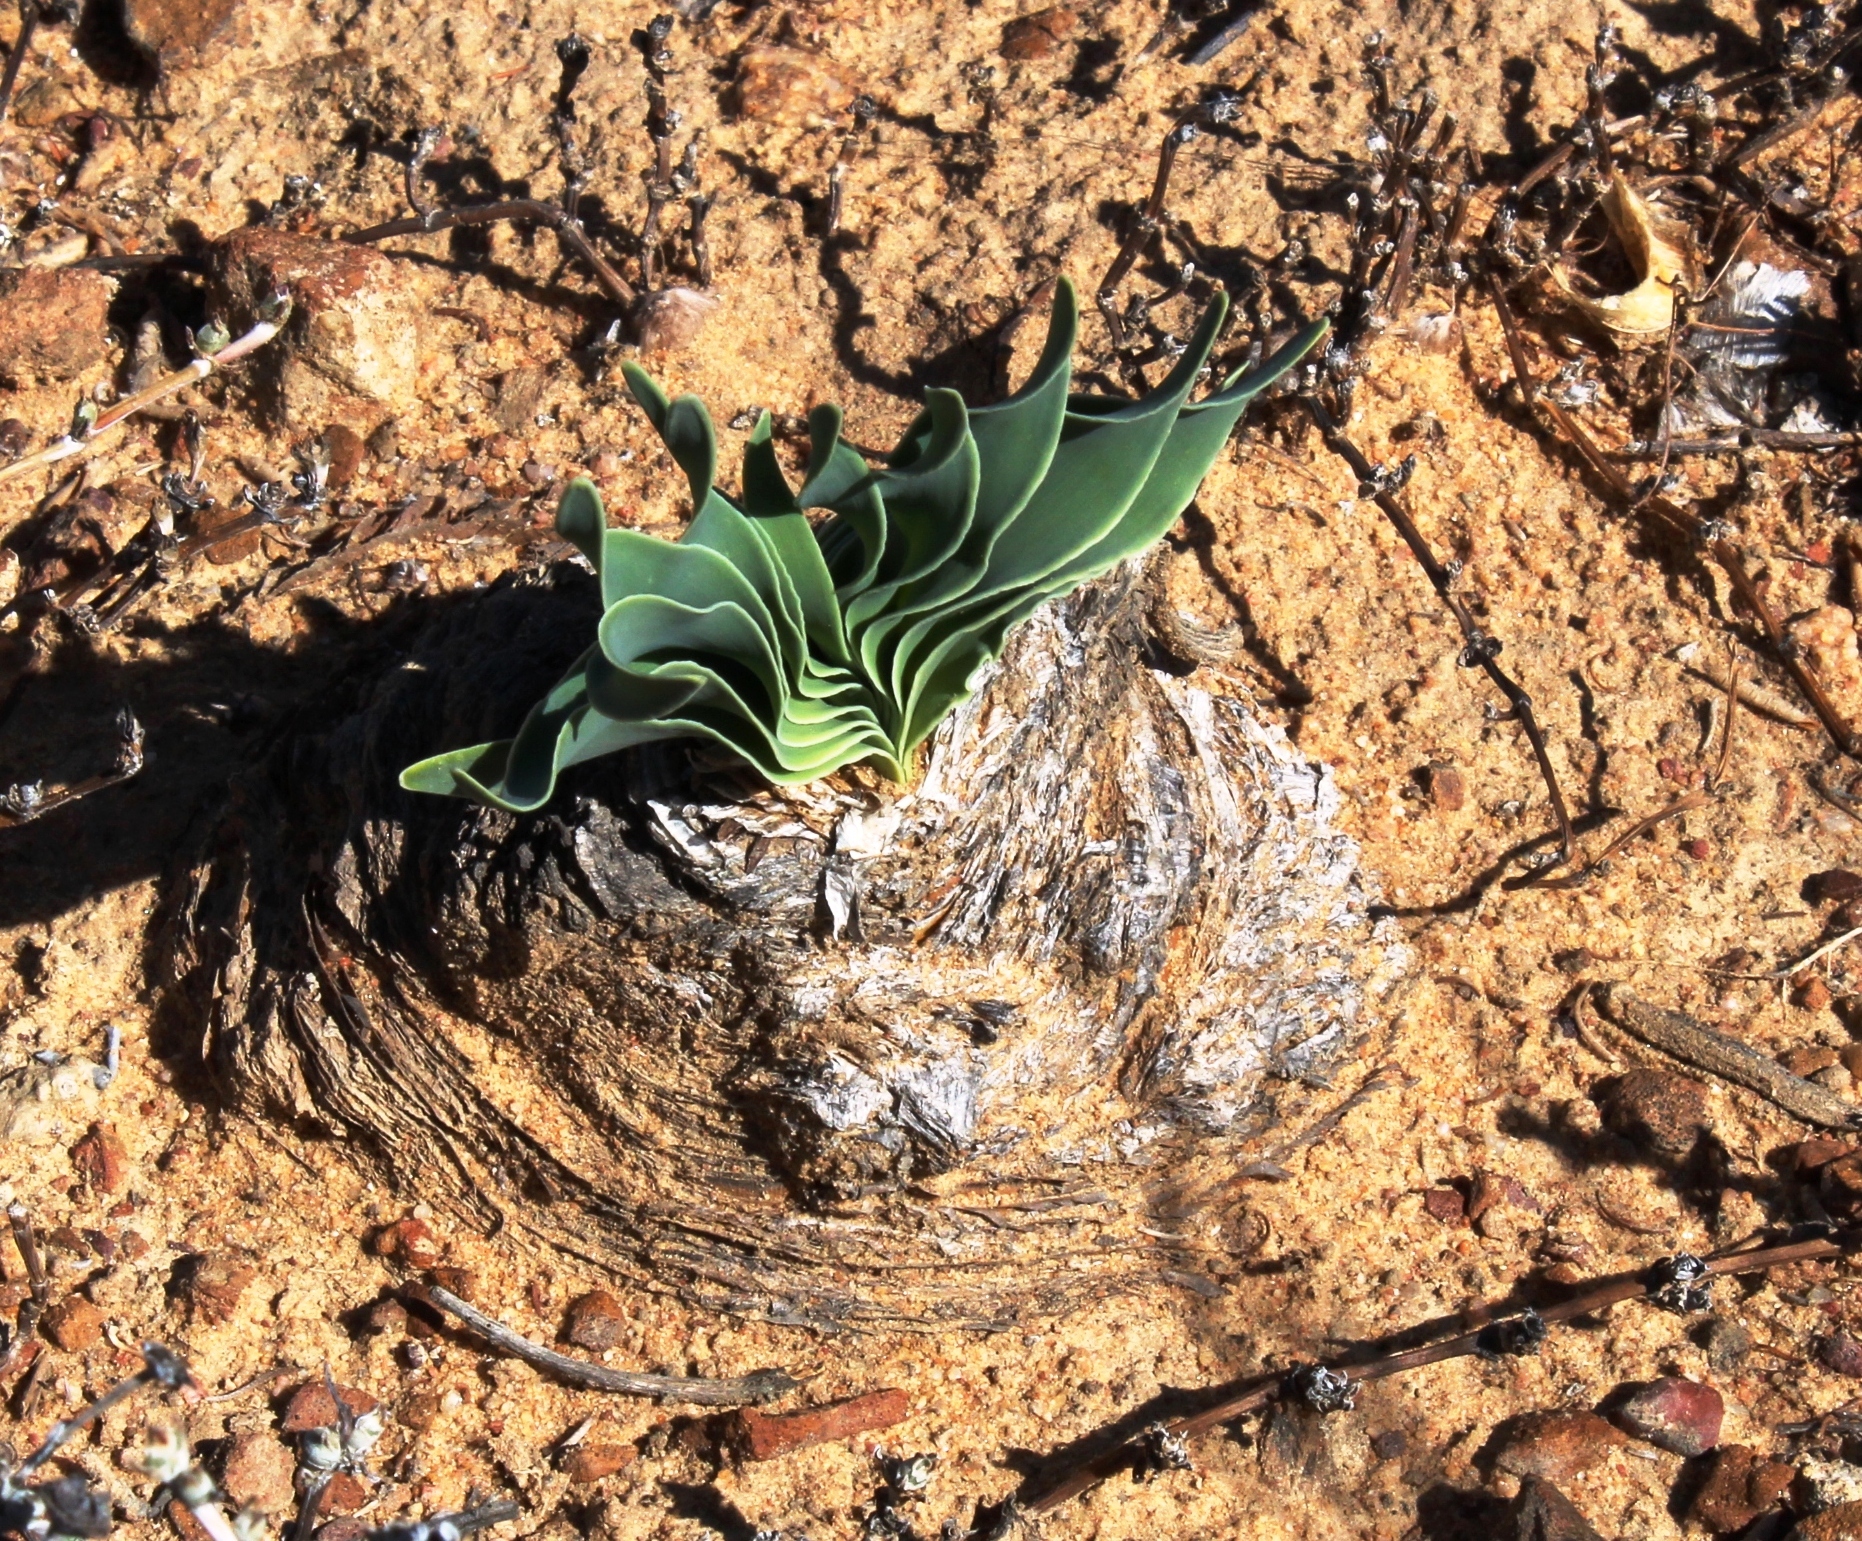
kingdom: Plantae
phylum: Tracheophyta
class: Liliopsida
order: Asparagales
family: Amaryllidaceae
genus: Boophone
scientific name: Boophone disticha
